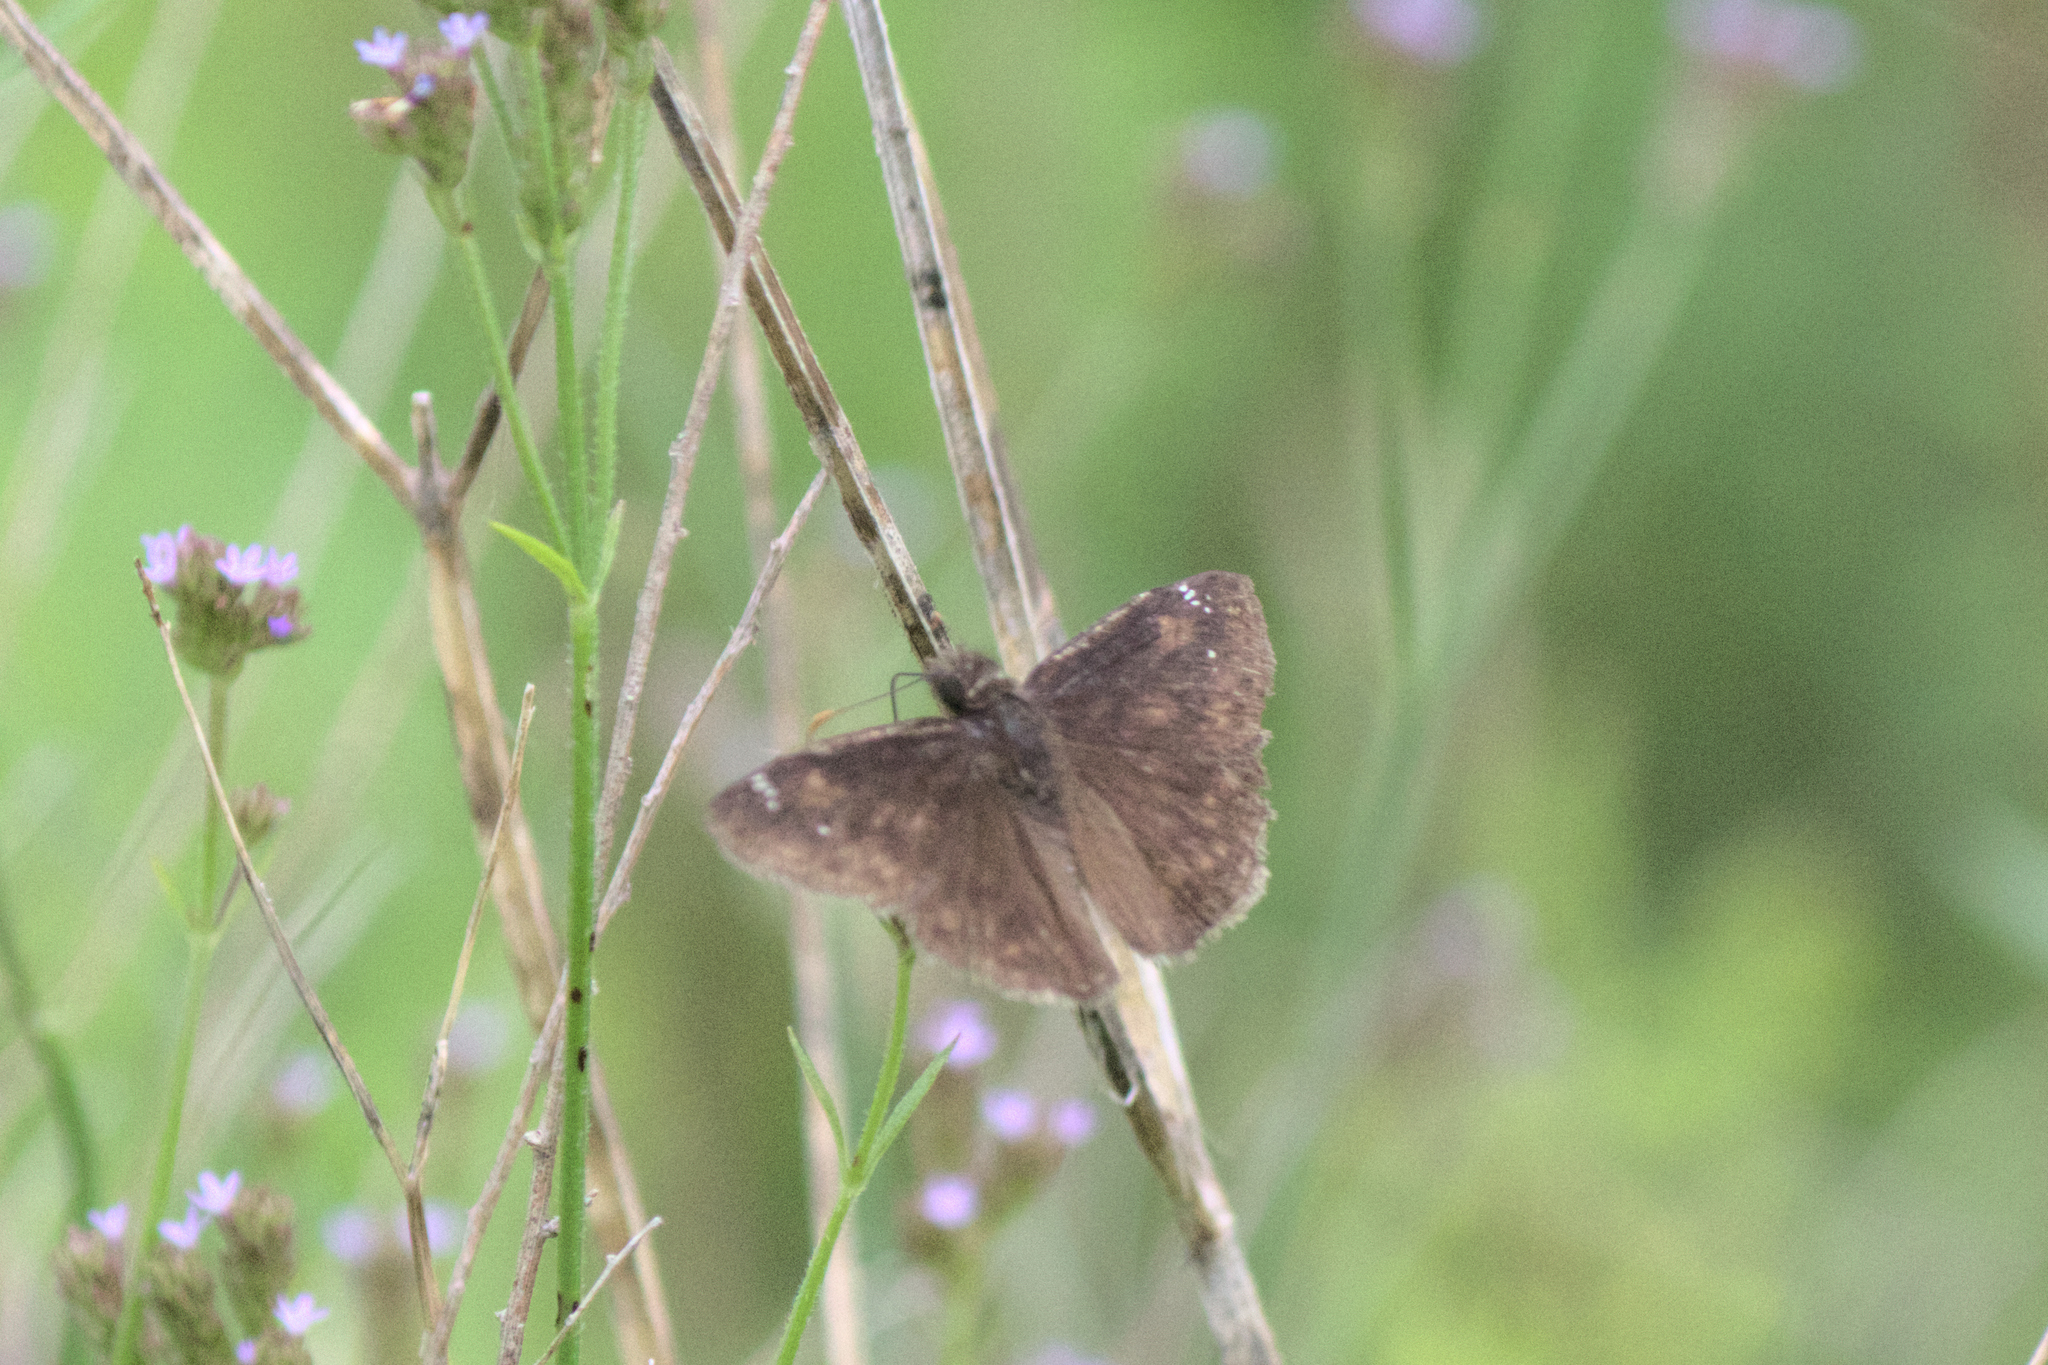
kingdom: Animalia
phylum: Arthropoda
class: Insecta
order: Lepidoptera
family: Hesperiidae
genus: Erynnis
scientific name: Erynnis zarucco
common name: Zarucco duskywing
